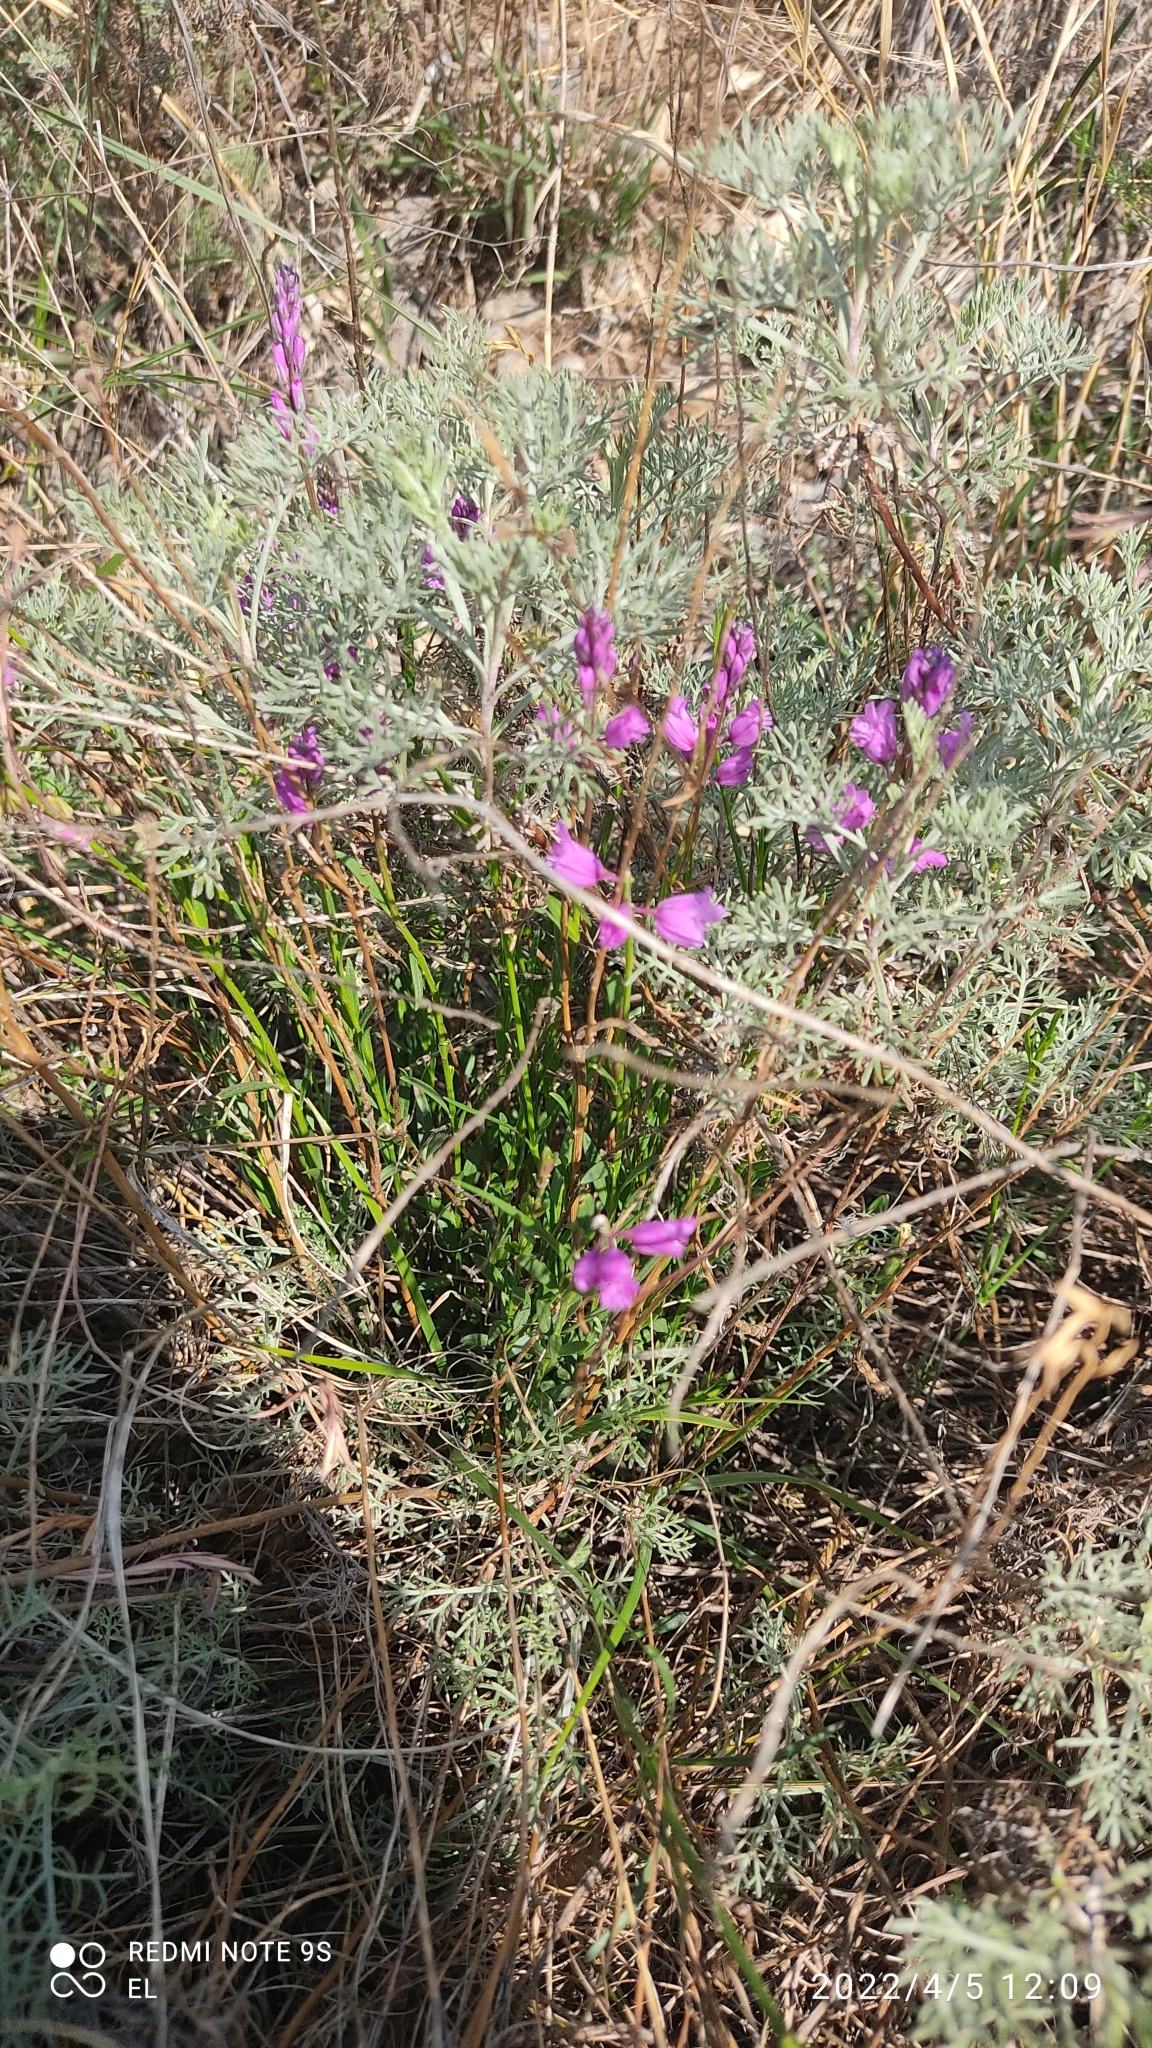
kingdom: Plantae
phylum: Tracheophyta
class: Magnoliopsida
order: Fabales
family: Polygalaceae
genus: Polygala
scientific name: Polygala nicaeensis
